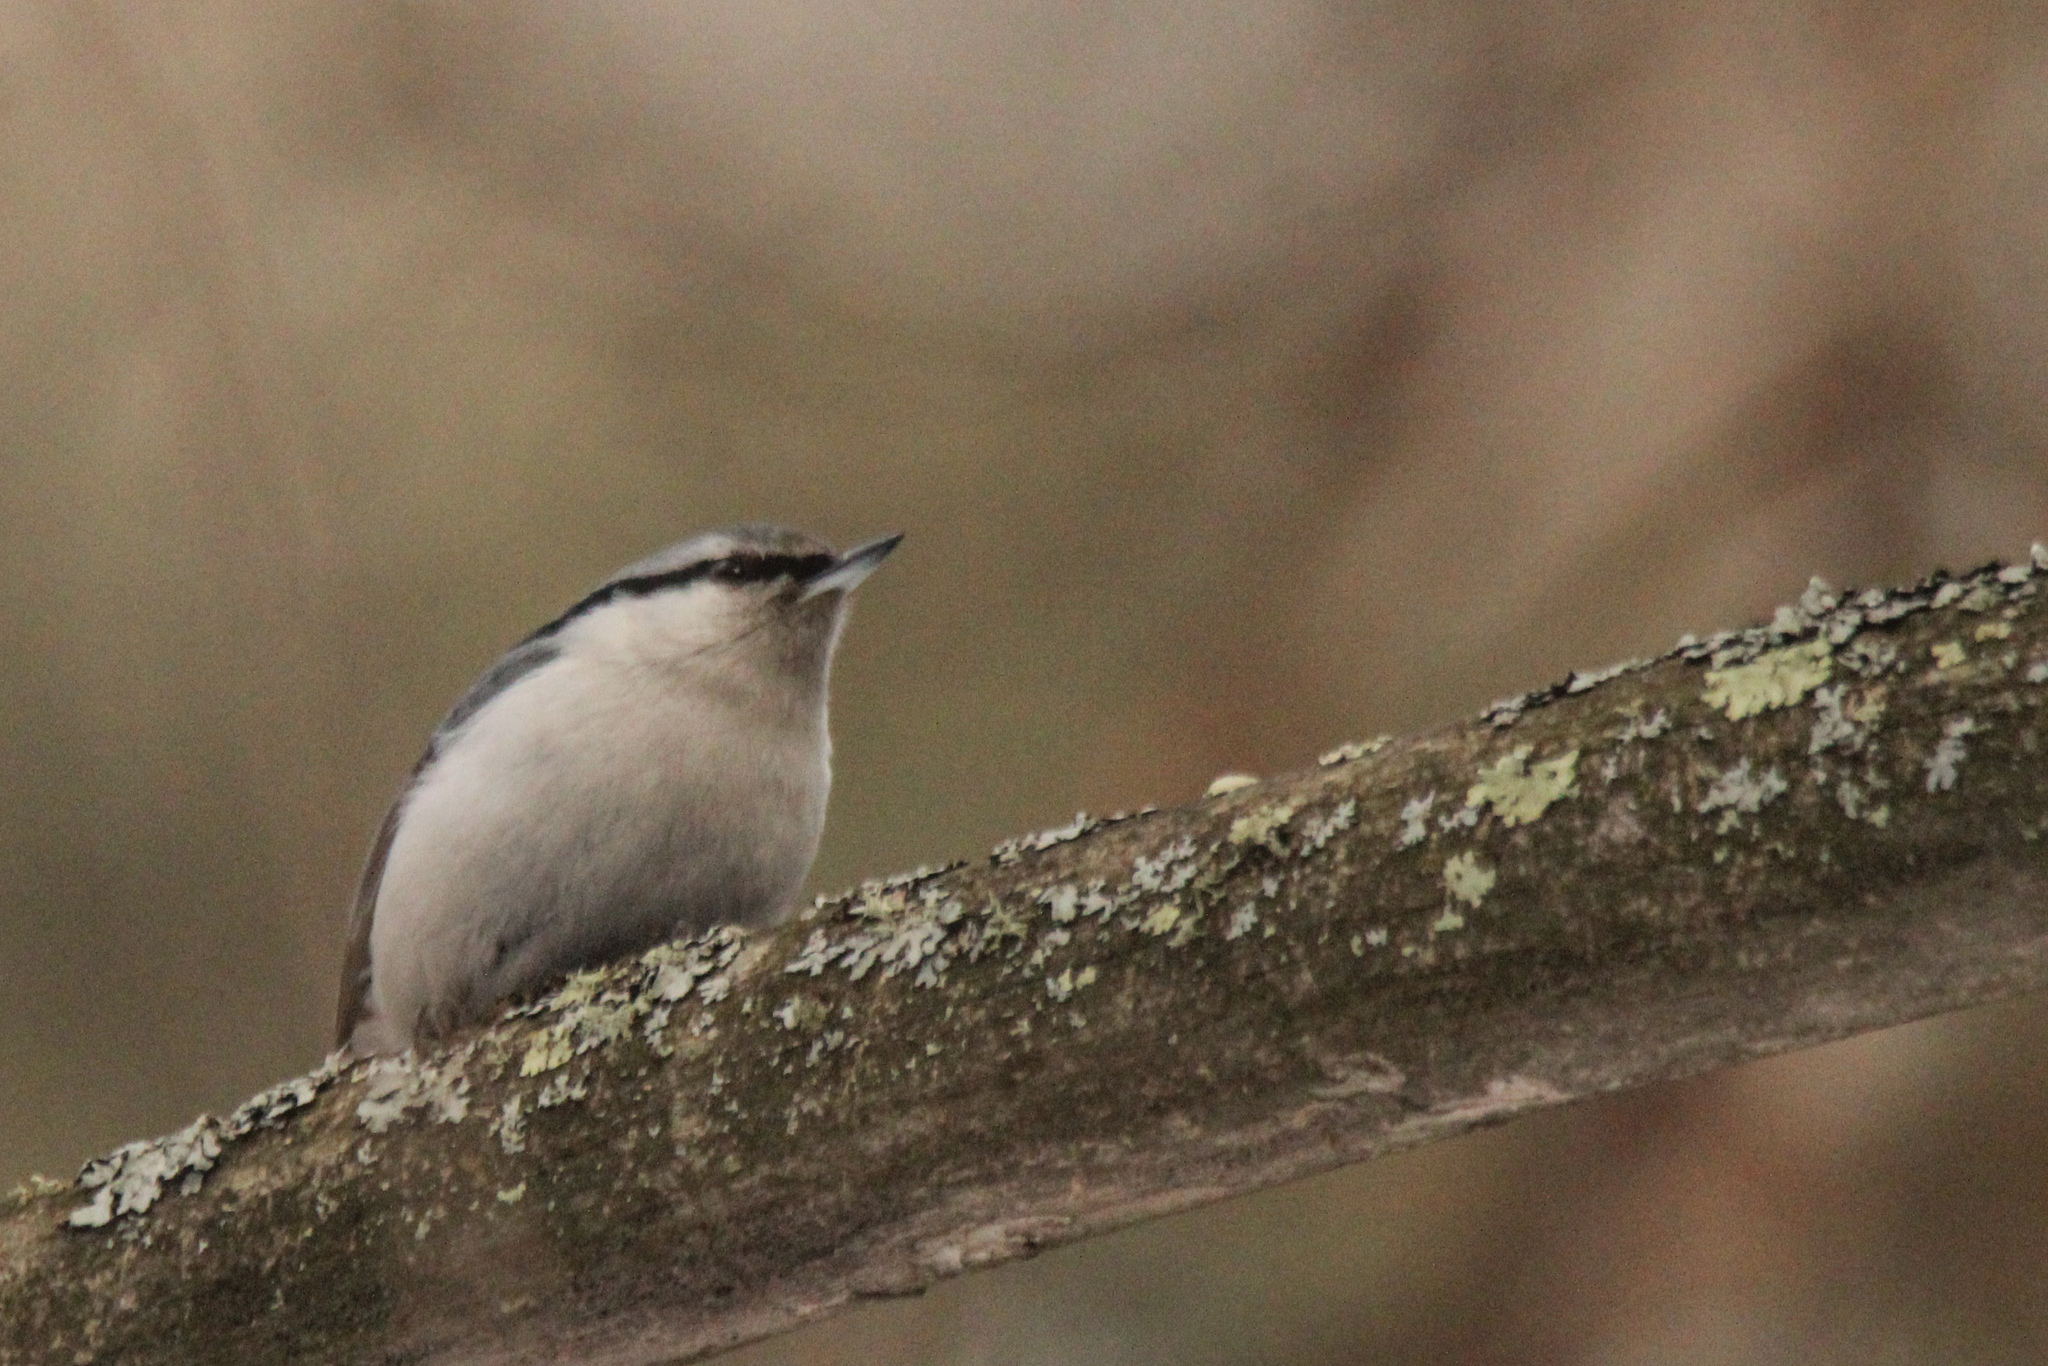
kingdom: Animalia
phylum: Chordata
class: Aves
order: Passeriformes
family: Sittidae
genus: Sitta
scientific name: Sitta europaea
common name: Eurasian nuthatch
